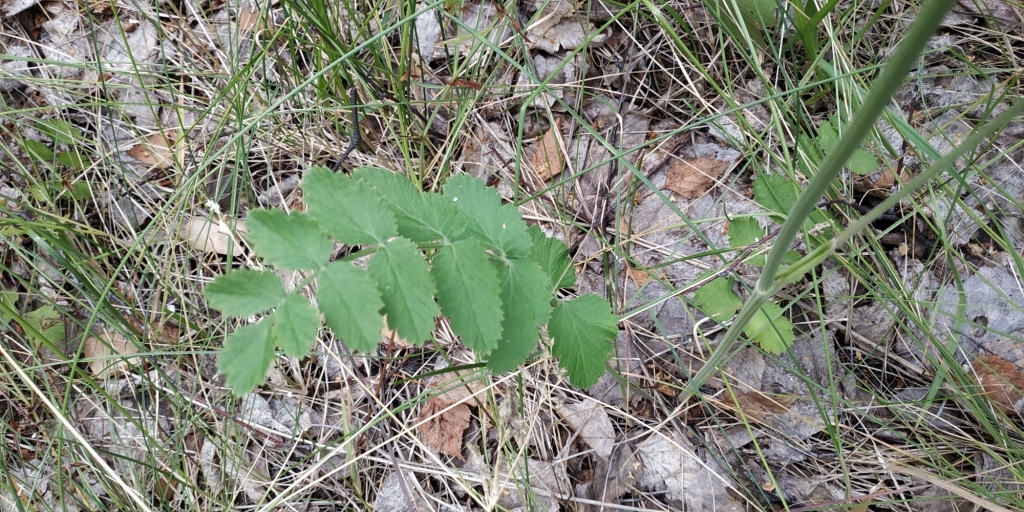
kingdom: Plantae
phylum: Tracheophyta
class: Magnoliopsida
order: Apiales
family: Apiaceae
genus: Pimpinella
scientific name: Pimpinella saxifraga
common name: Burnet-saxifrage
